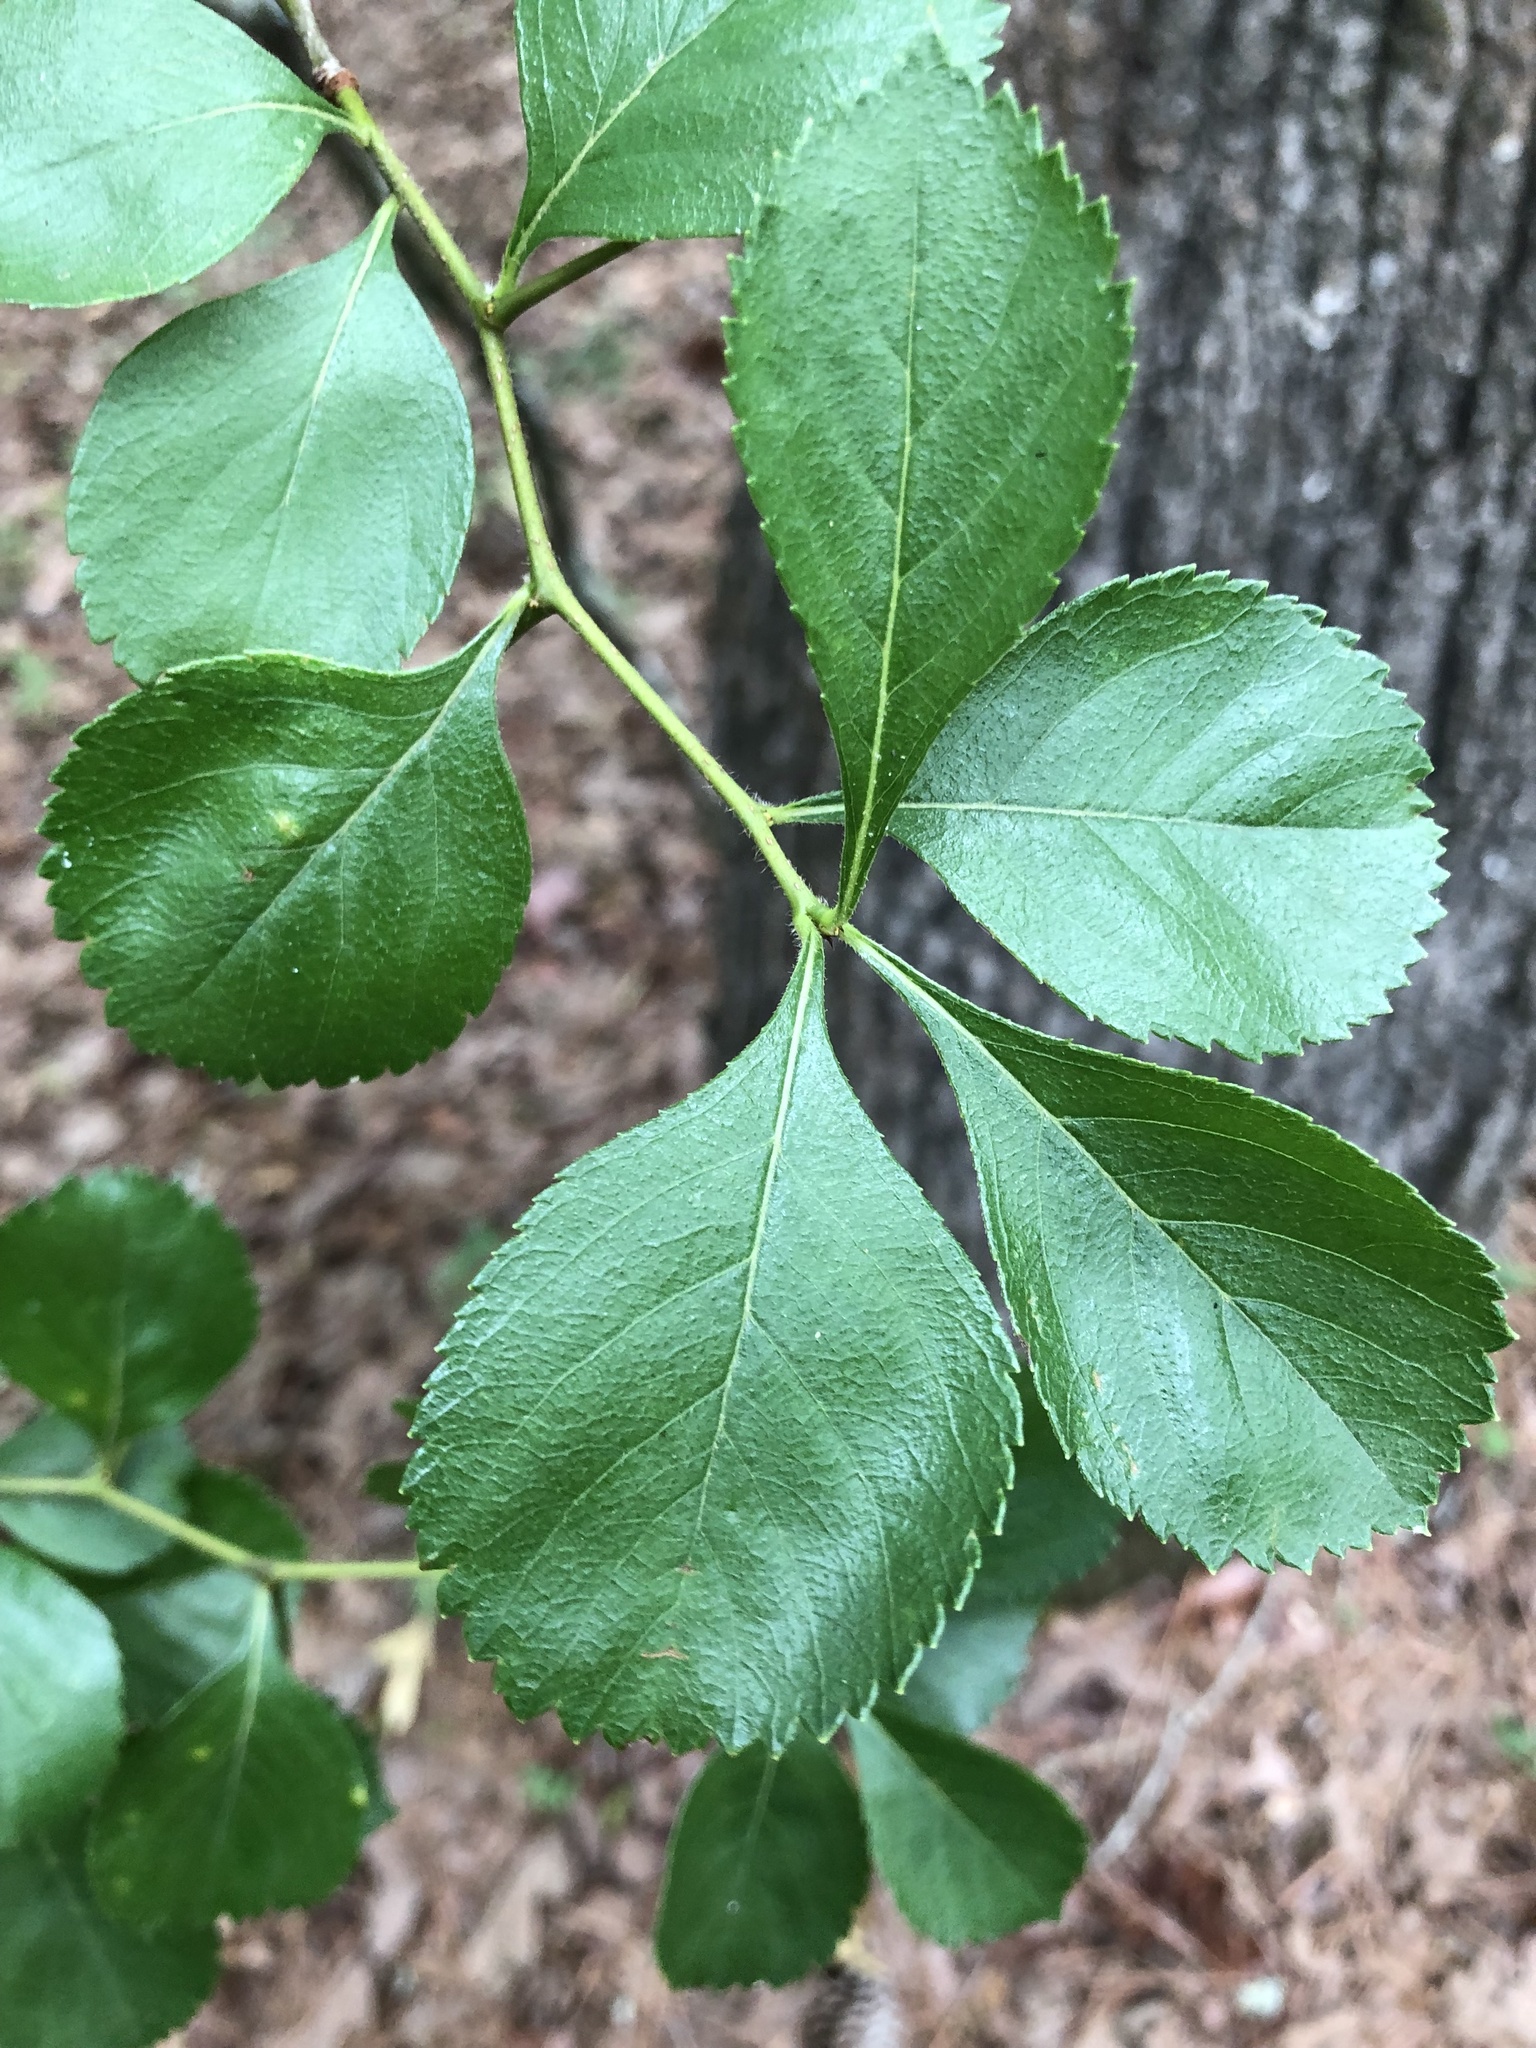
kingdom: Plantae
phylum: Tracheophyta
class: Magnoliopsida
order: Rosales
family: Rosaceae
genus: Crataegus
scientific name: Crataegus berberifolia
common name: Barberry hawthorn
